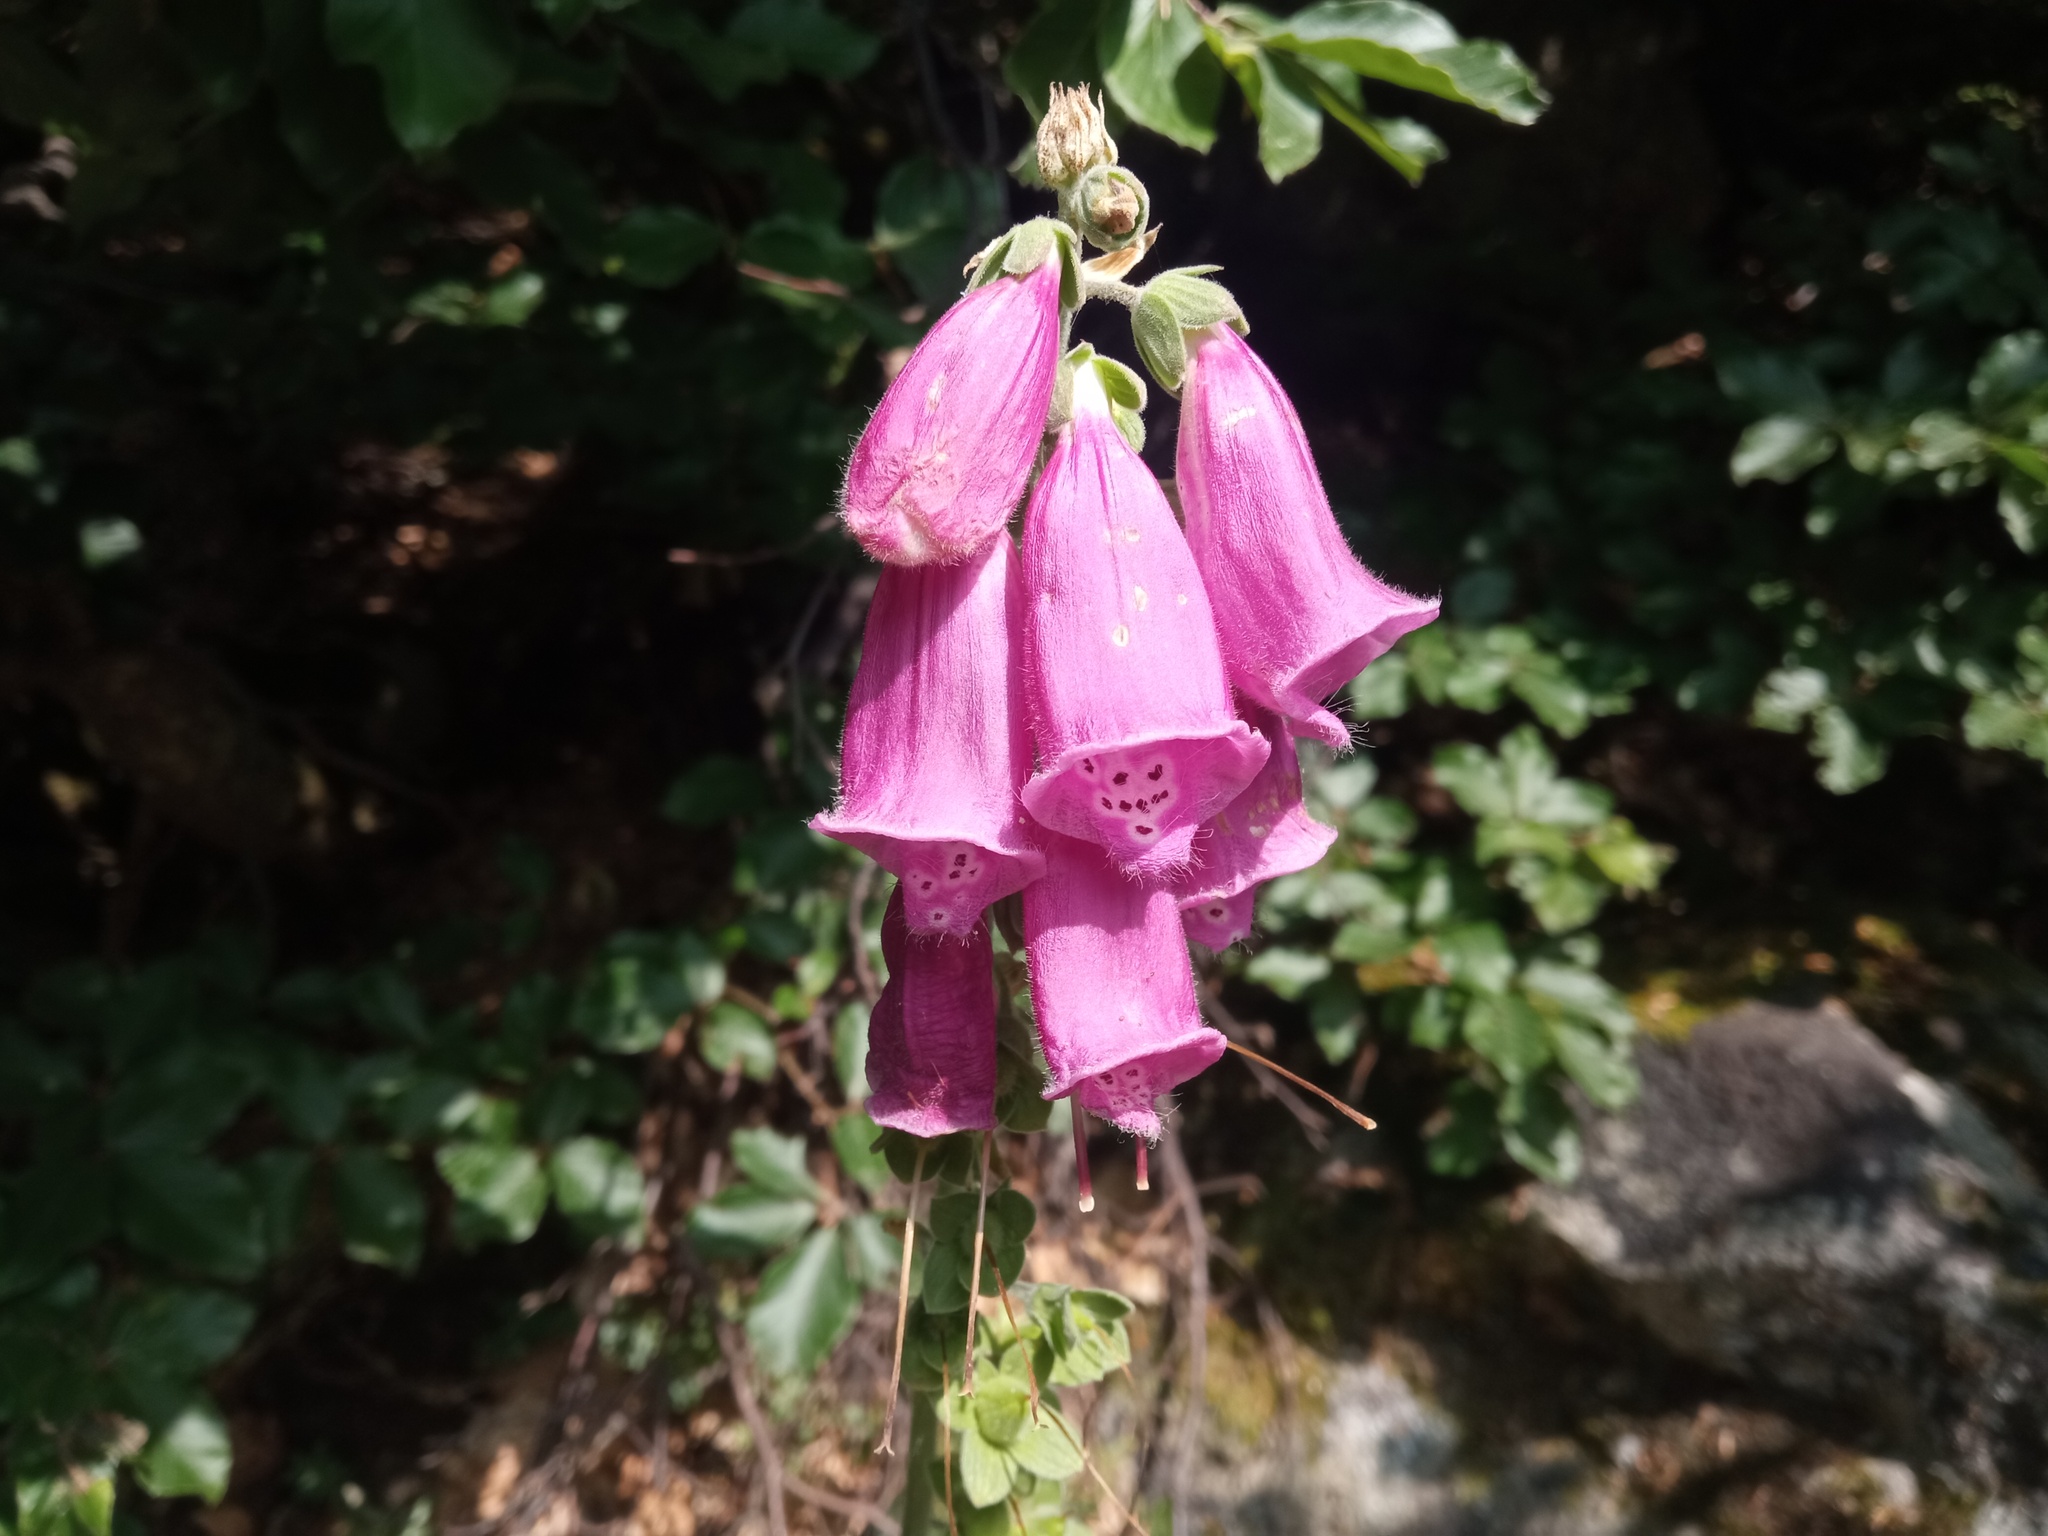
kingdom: Plantae
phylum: Tracheophyta
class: Magnoliopsida
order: Lamiales
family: Plantaginaceae
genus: Digitalis
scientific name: Digitalis purpurea
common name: Foxglove
